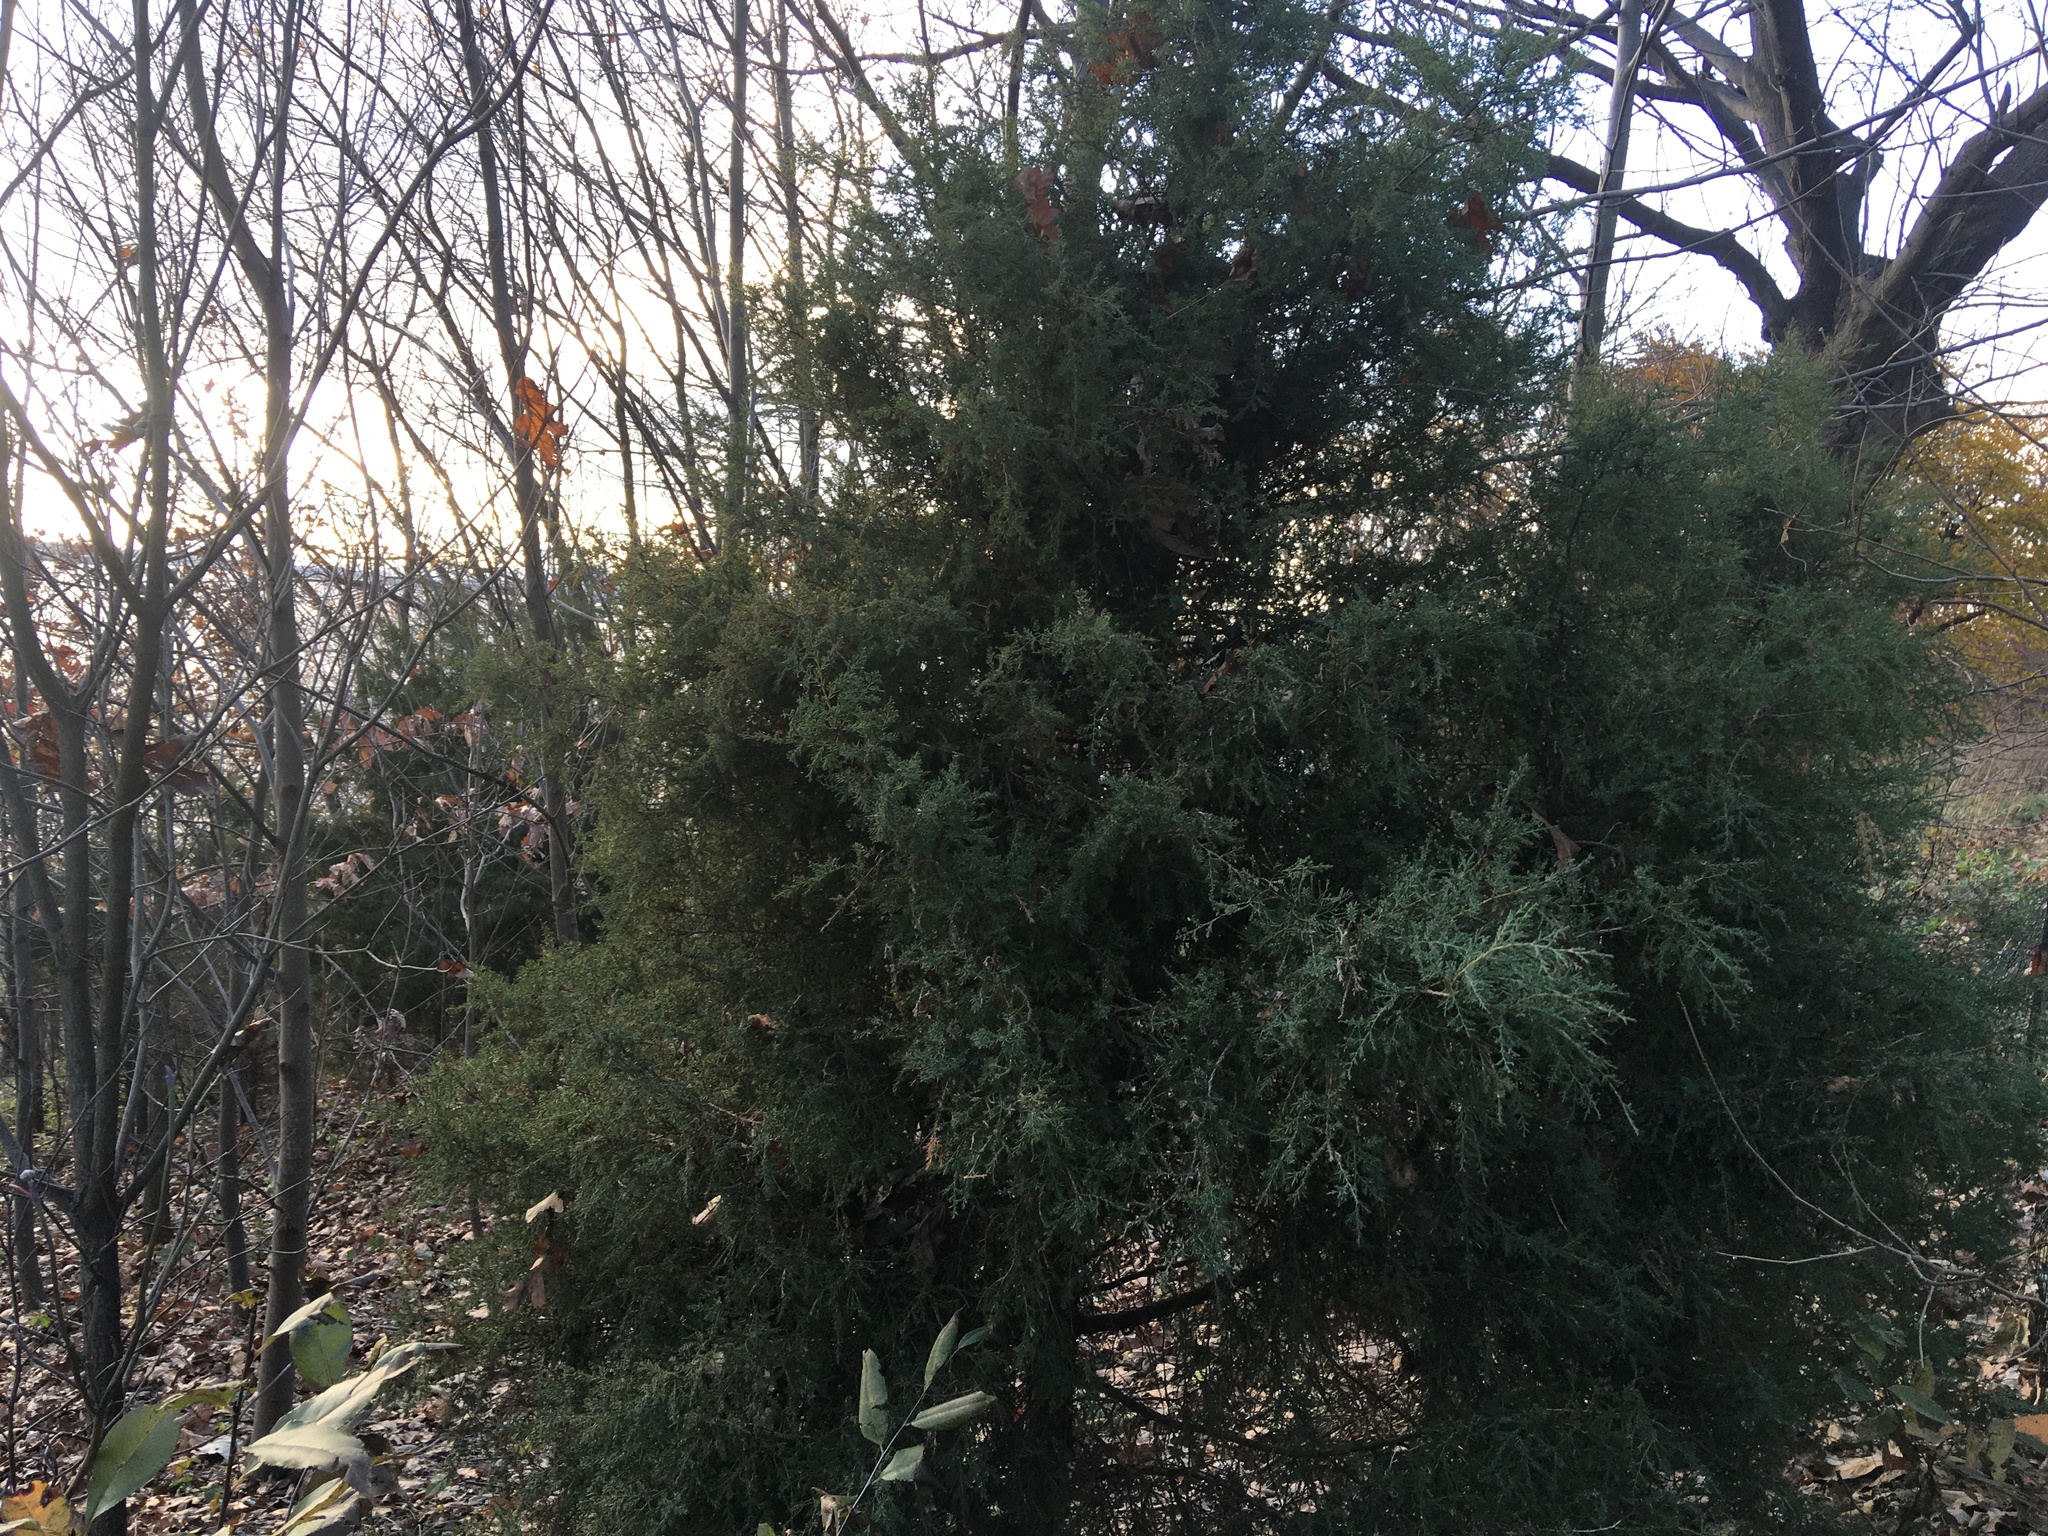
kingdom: Plantae
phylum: Tracheophyta
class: Pinopsida
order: Pinales
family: Cupressaceae
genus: Juniperus
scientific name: Juniperus virginiana
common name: Red juniper
